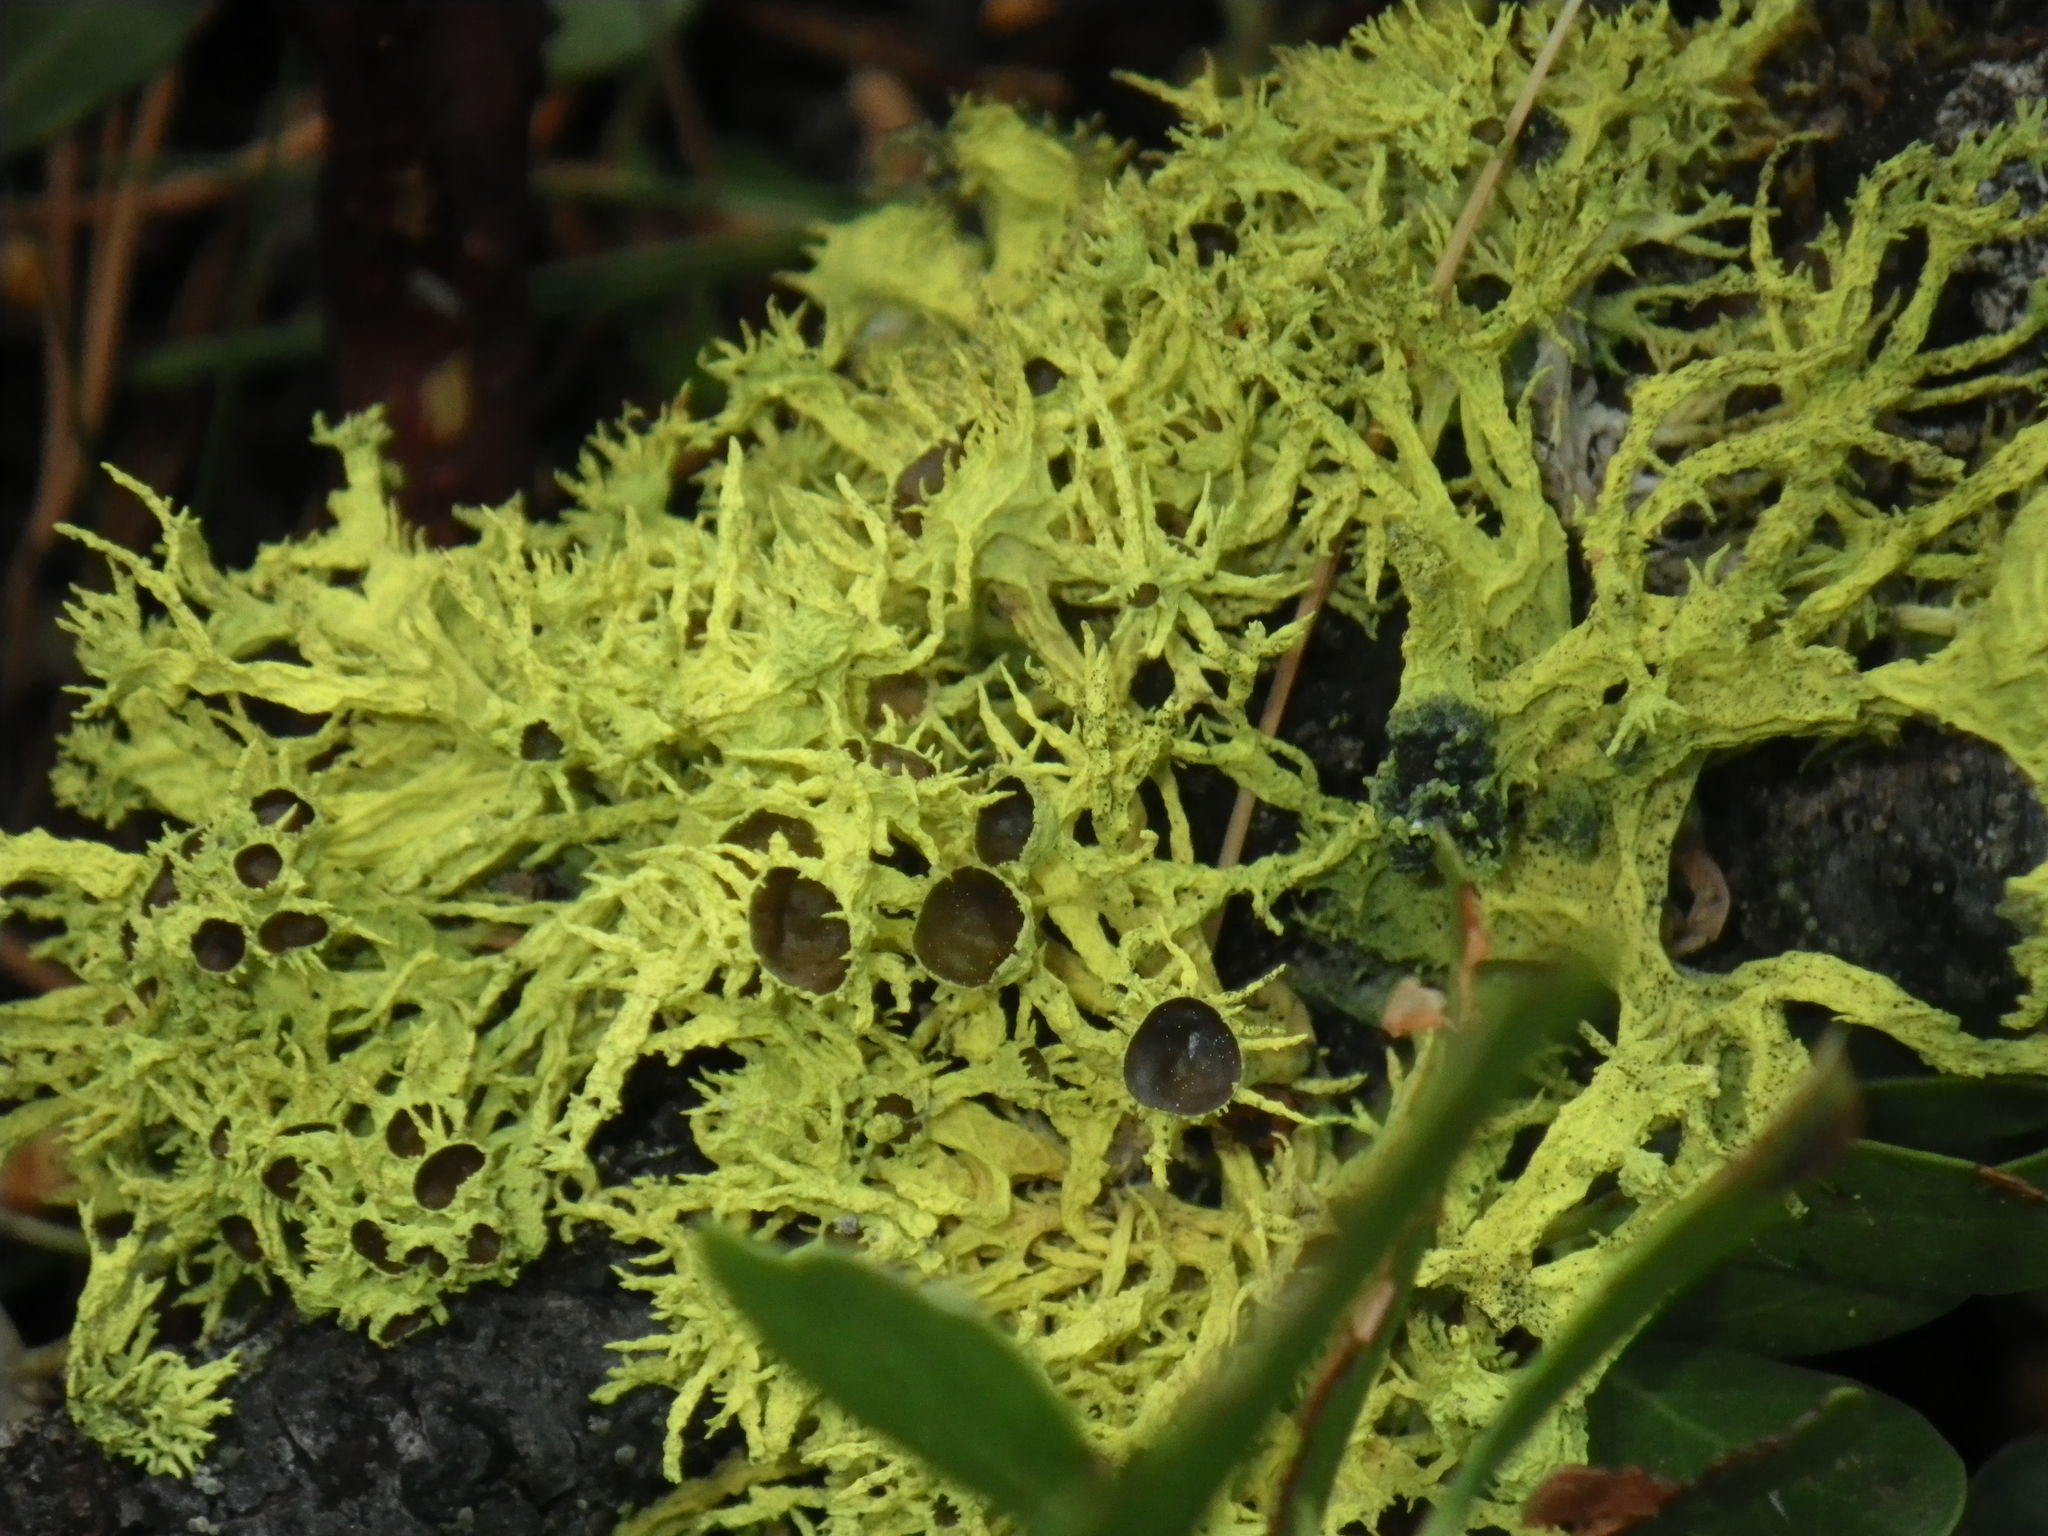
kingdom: Fungi
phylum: Ascomycota
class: Lecanoromycetes
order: Lecanorales
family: Parmeliaceae
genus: Letharia
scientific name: Letharia columbiana
